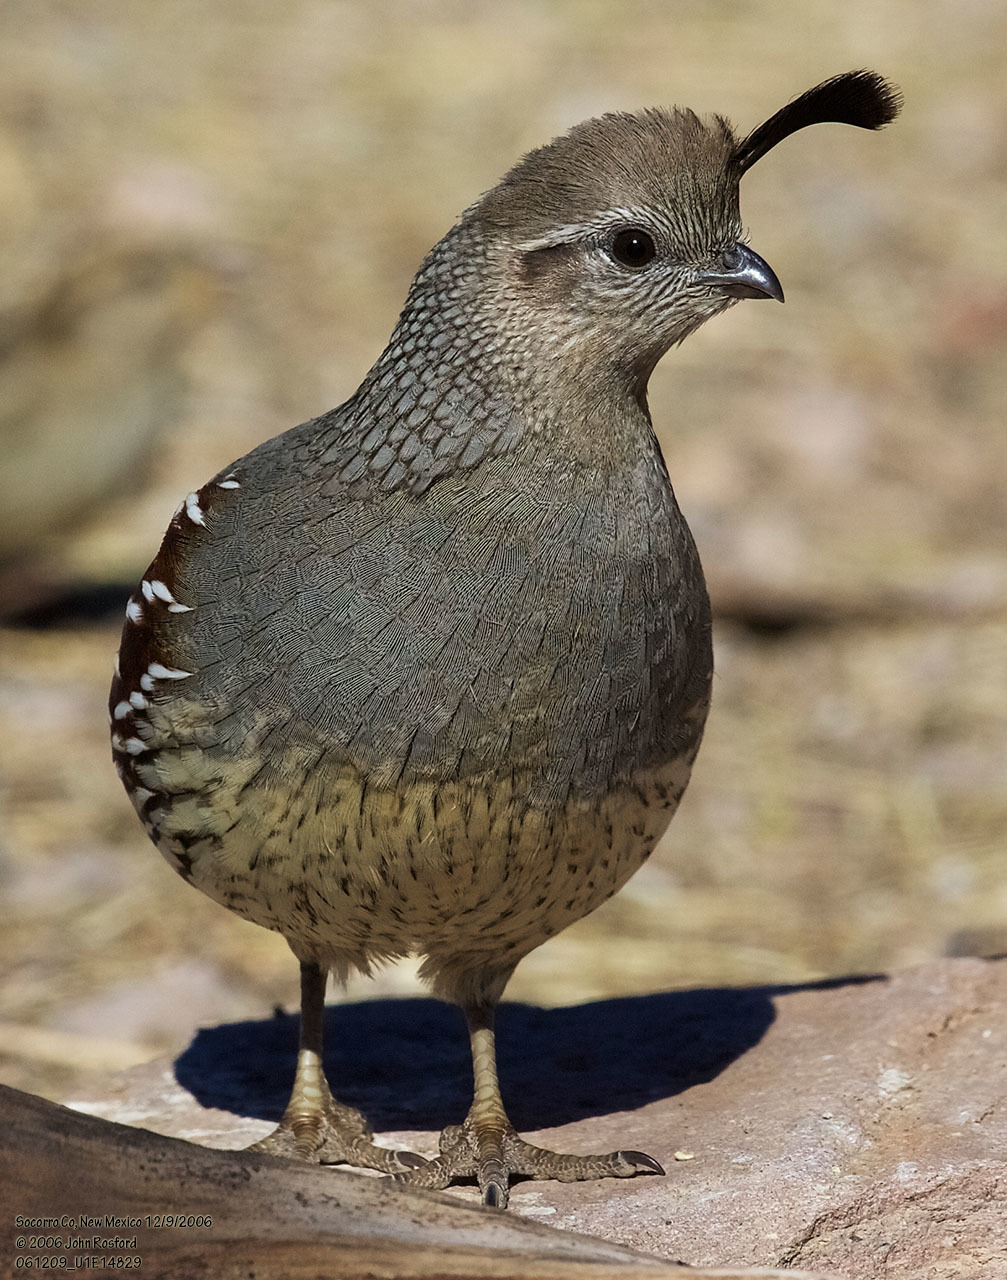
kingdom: Animalia
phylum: Chordata
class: Aves
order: Galliformes
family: Odontophoridae
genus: Callipepla
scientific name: Callipepla gambelii
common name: Gambel's quail
